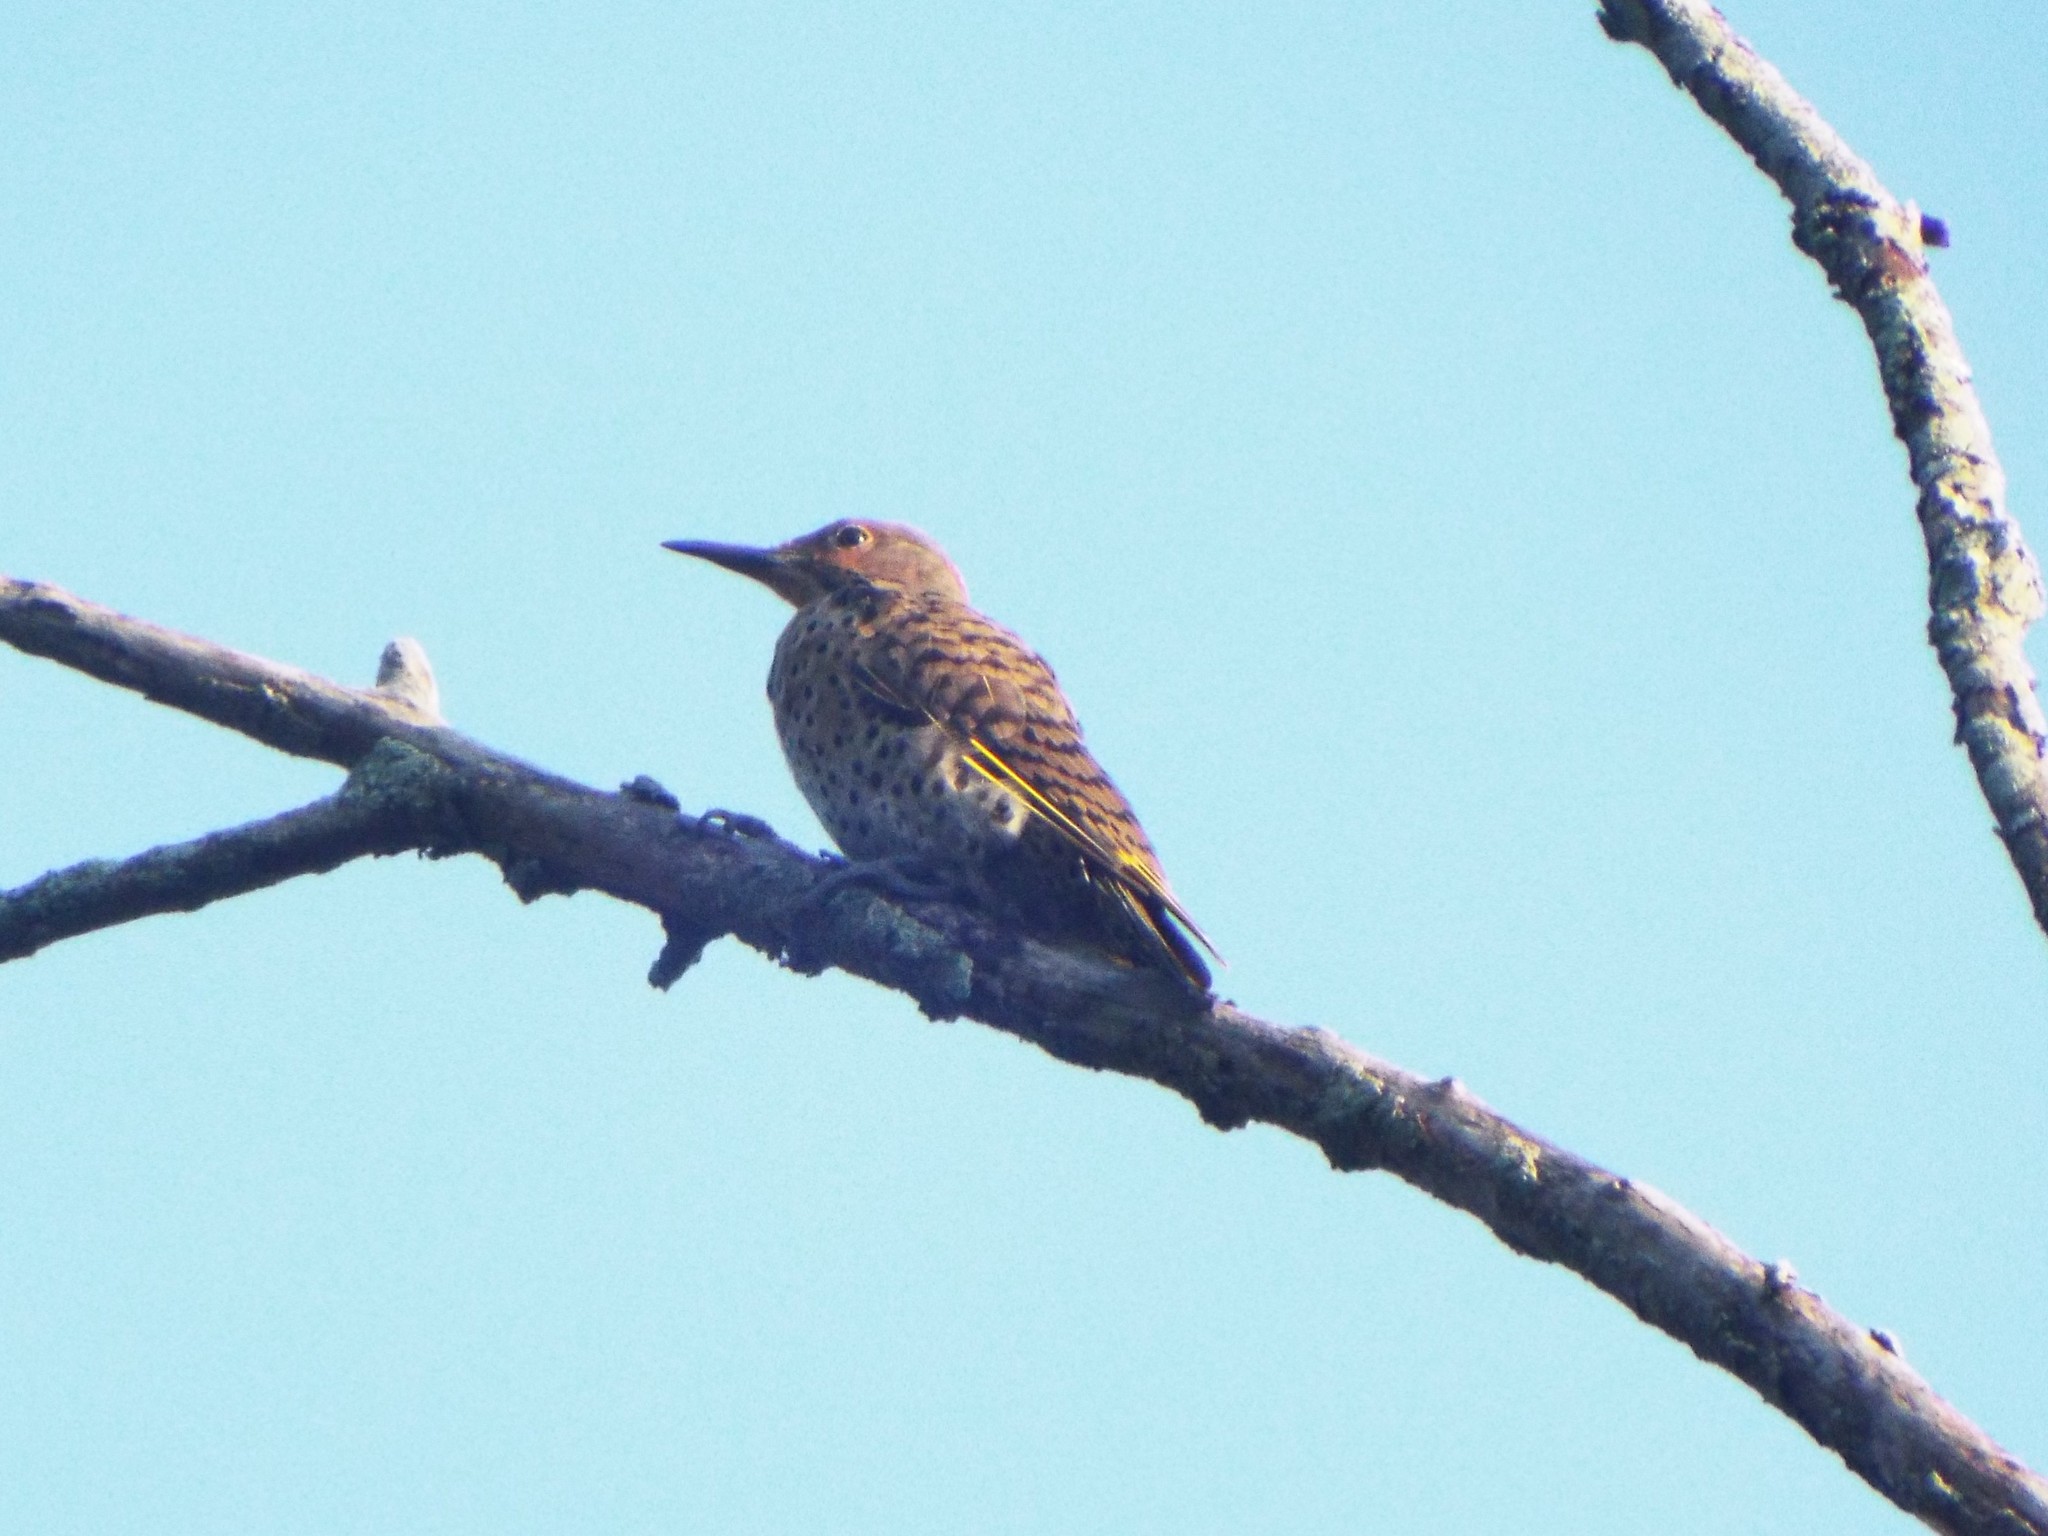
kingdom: Animalia
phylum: Chordata
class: Aves
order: Piciformes
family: Picidae
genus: Colaptes
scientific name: Colaptes auratus
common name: Northern flicker
